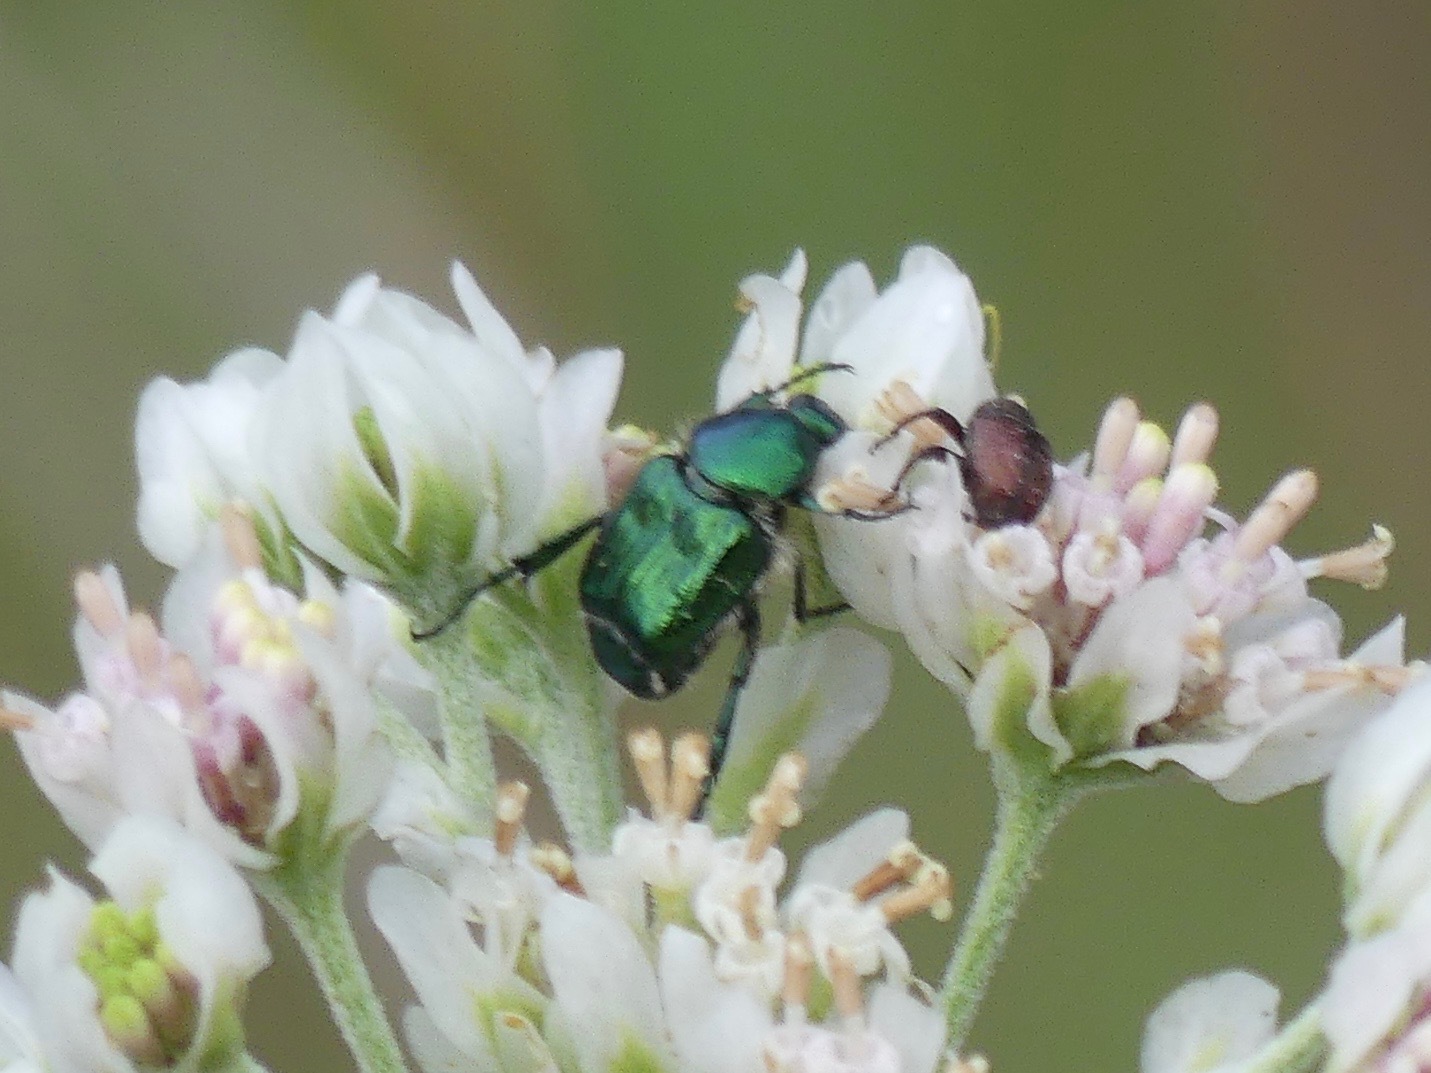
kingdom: Animalia
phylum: Arthropoda
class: Insecta
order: Coleoptera
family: Scarabaeidae
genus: Trichiotinus
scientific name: Trichiotinus lunulatus
